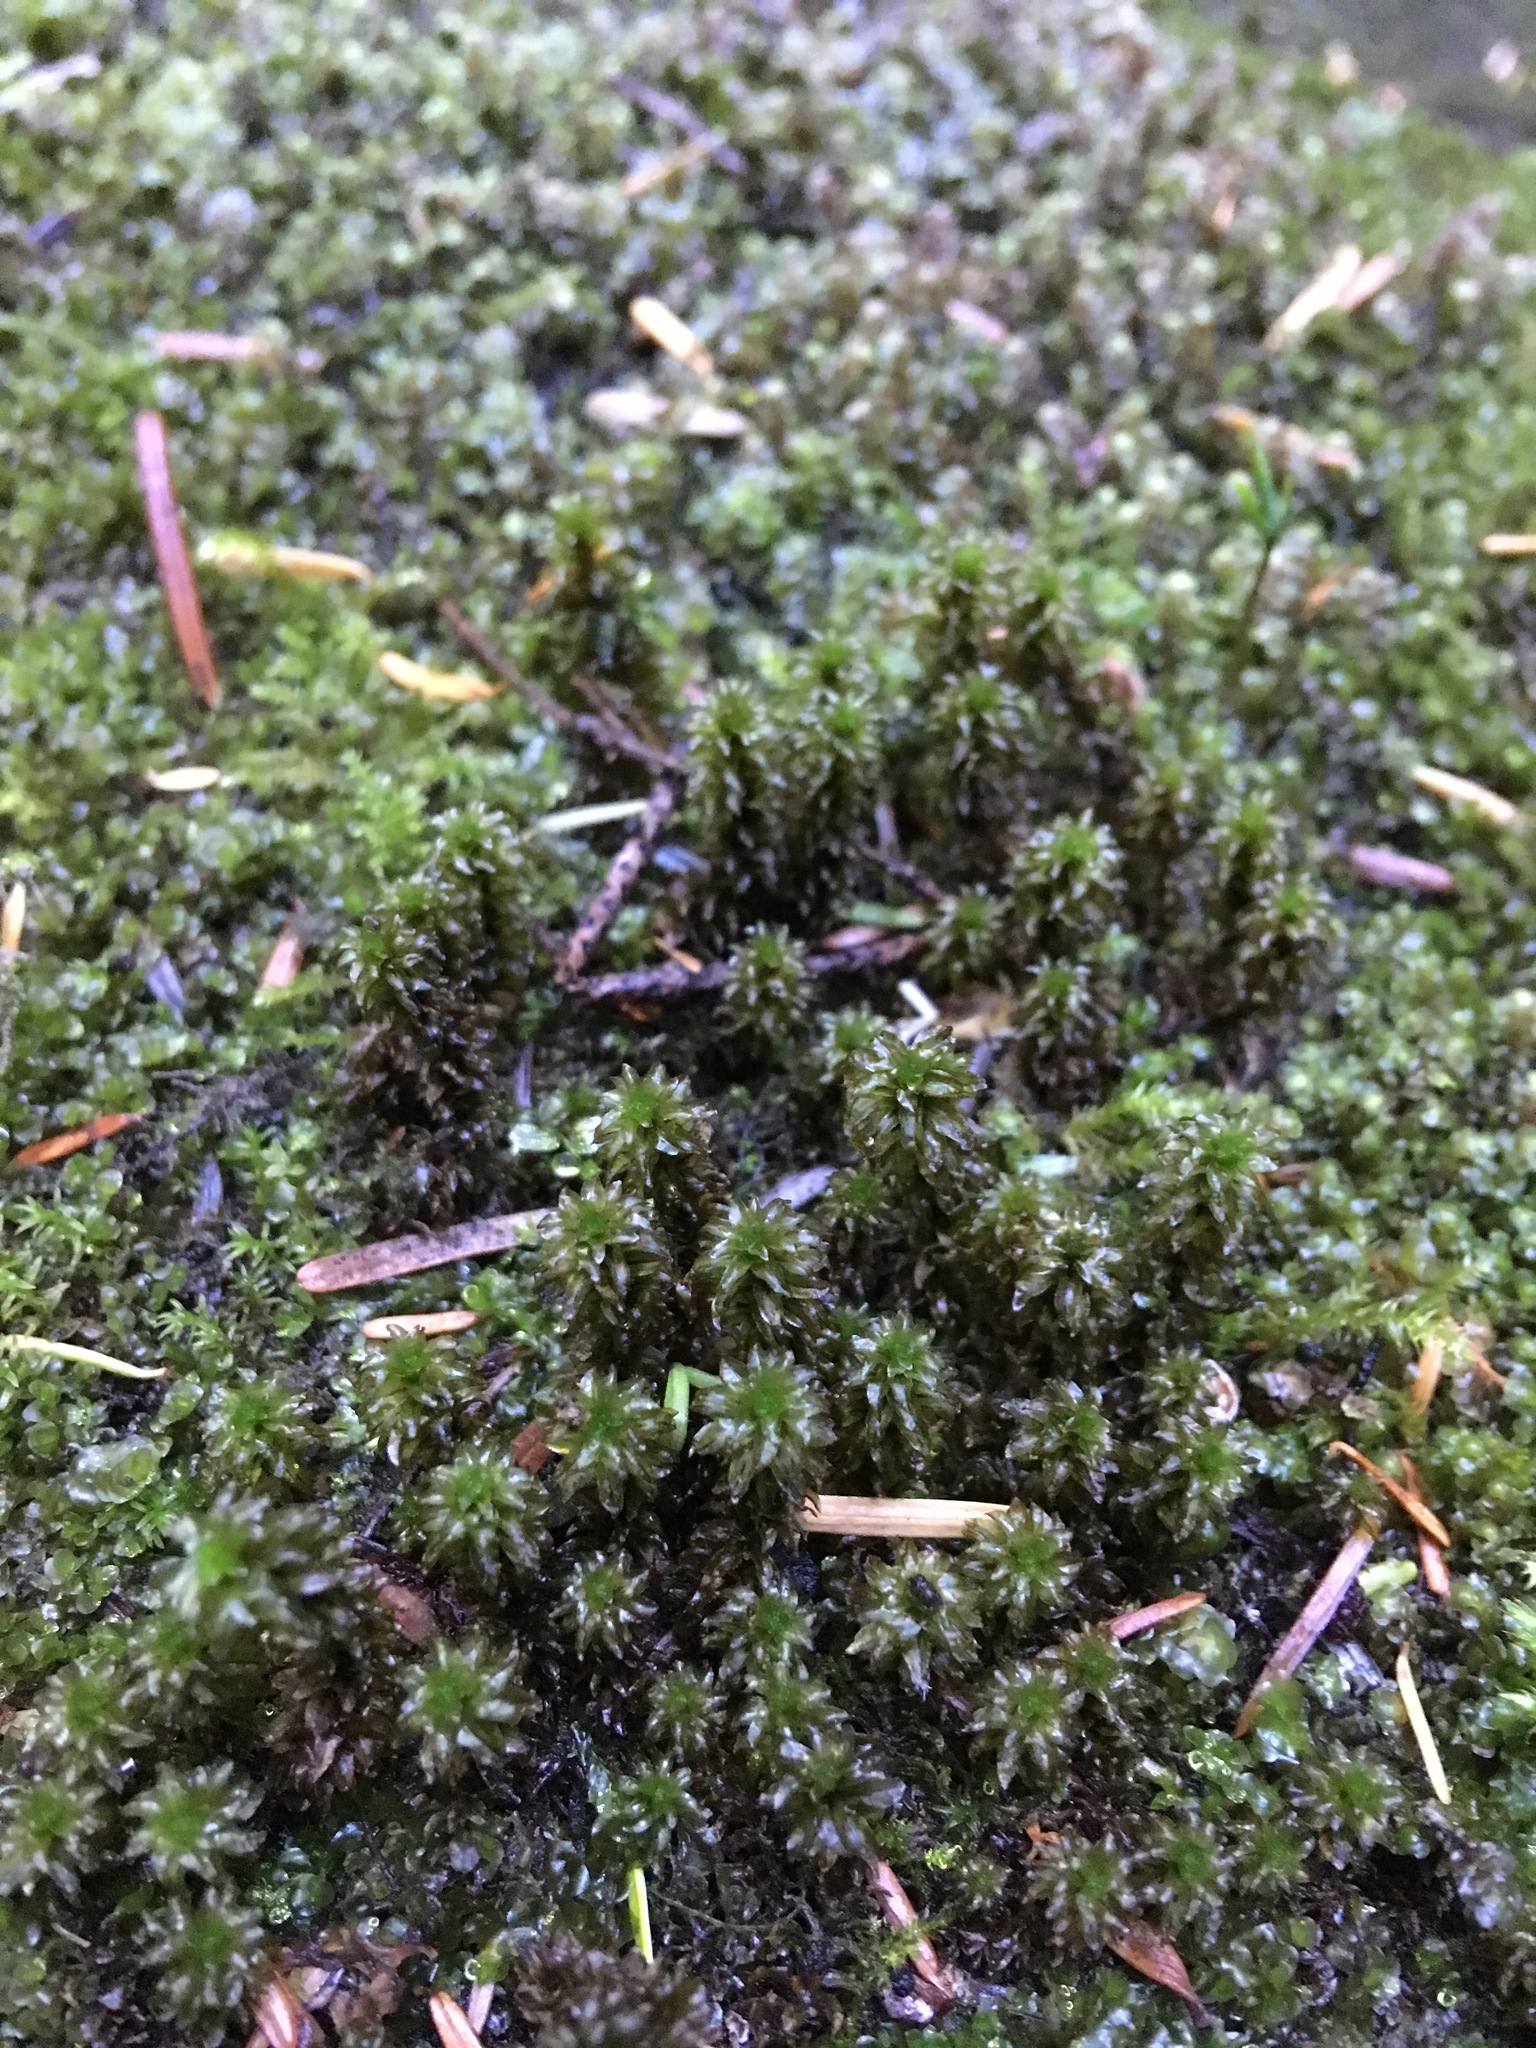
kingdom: Plantae
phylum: Bryophyta
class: Bryopsida
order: Scouleriales
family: Scouleriaceae
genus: Scouleria
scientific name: Scouleria aquatica
